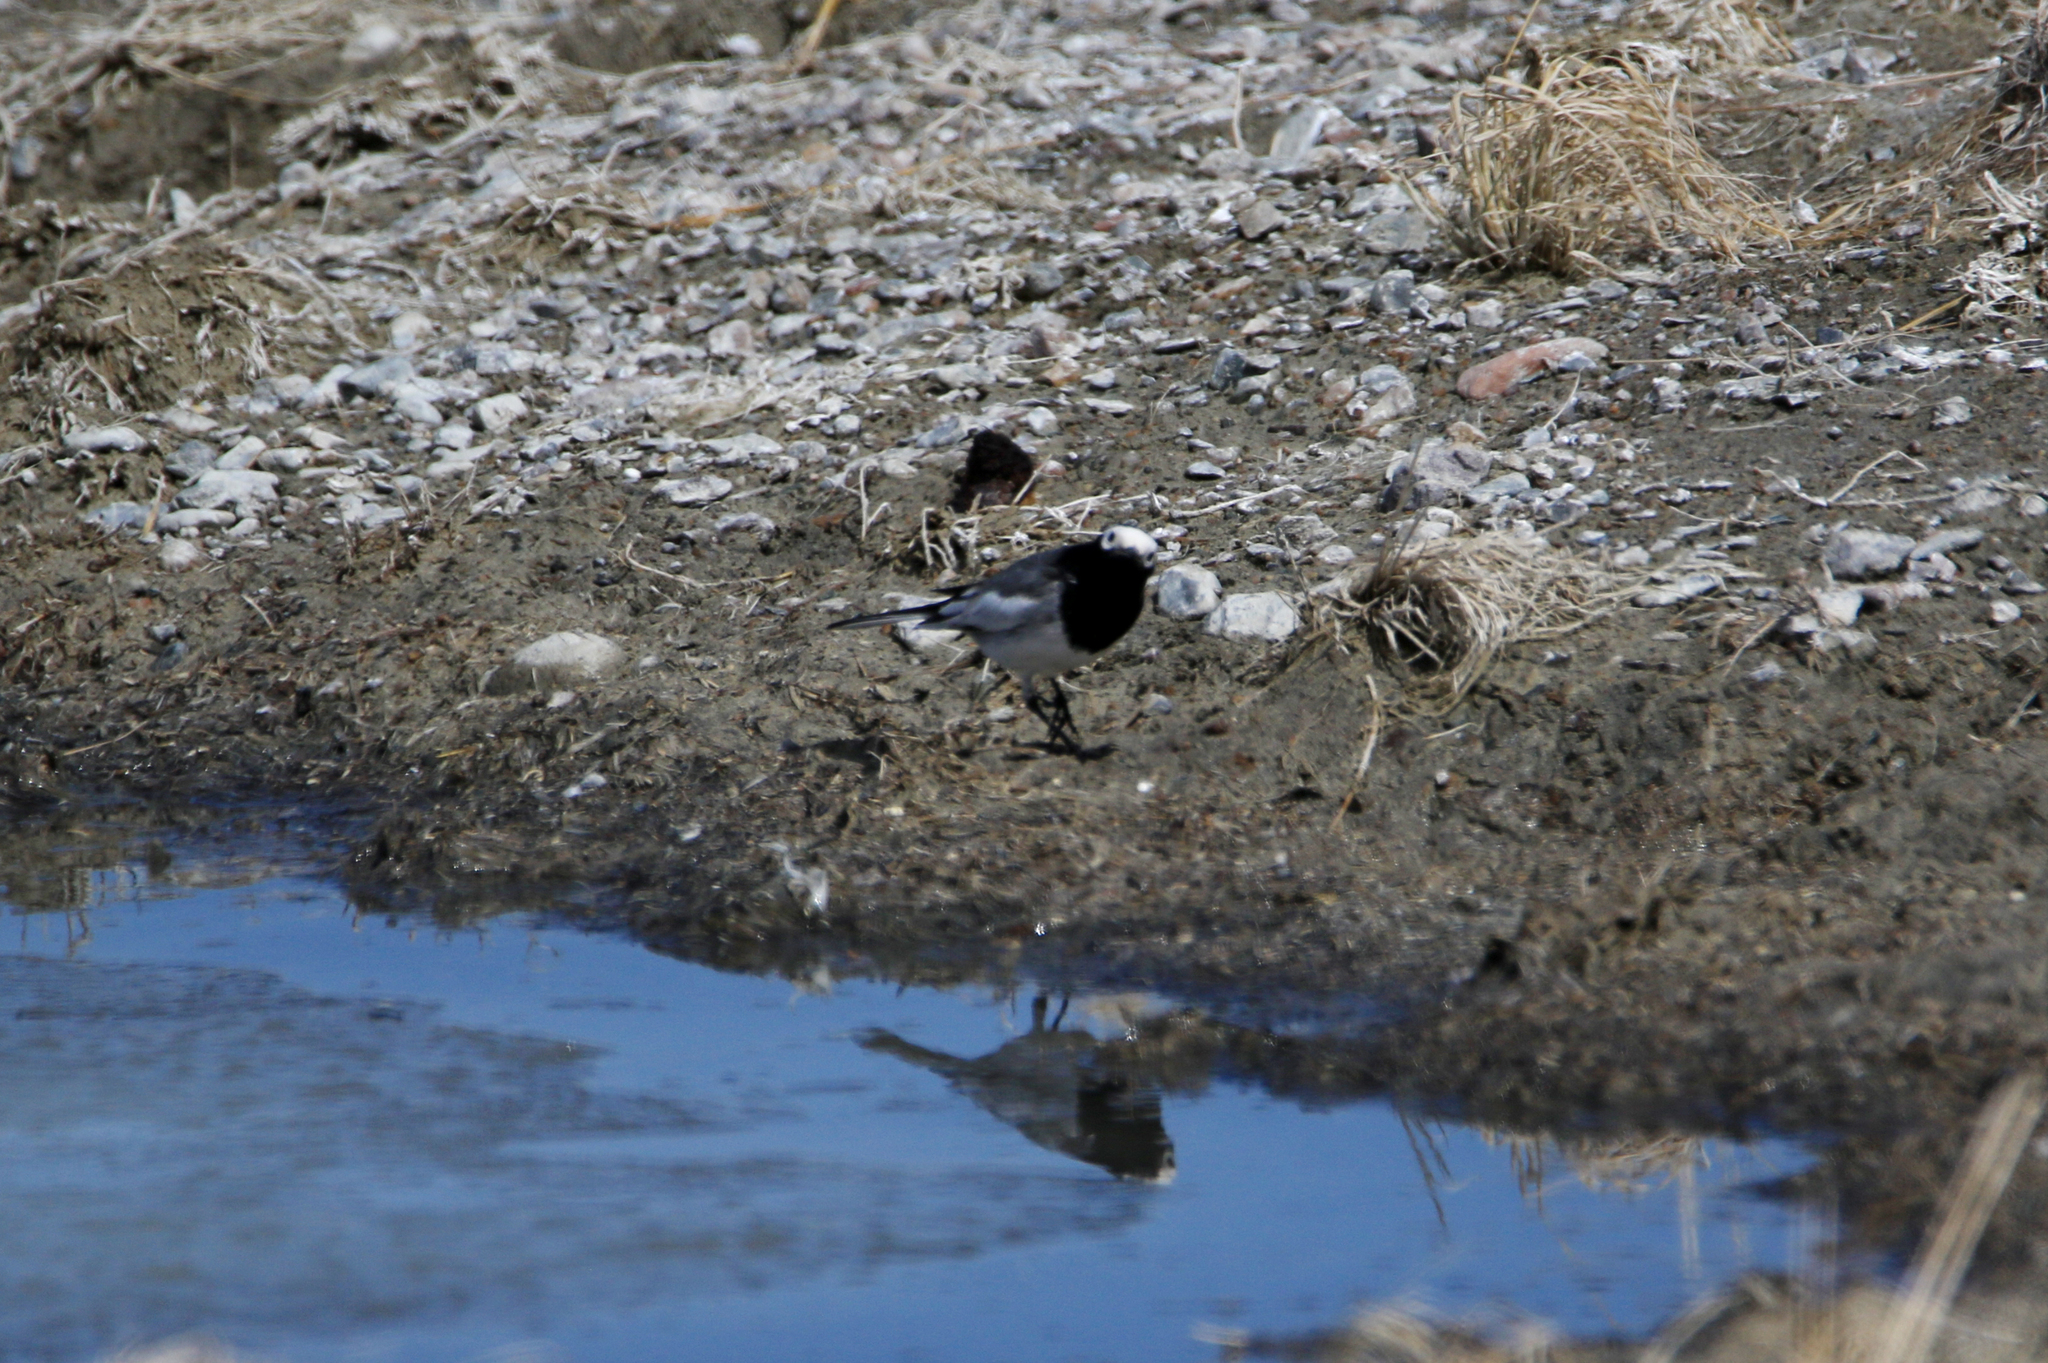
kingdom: Animalia
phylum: Chordata
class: Aves
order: Passeriformes
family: Motacillidae
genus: Motacilla
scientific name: Motacilla alba
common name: White wagtail
